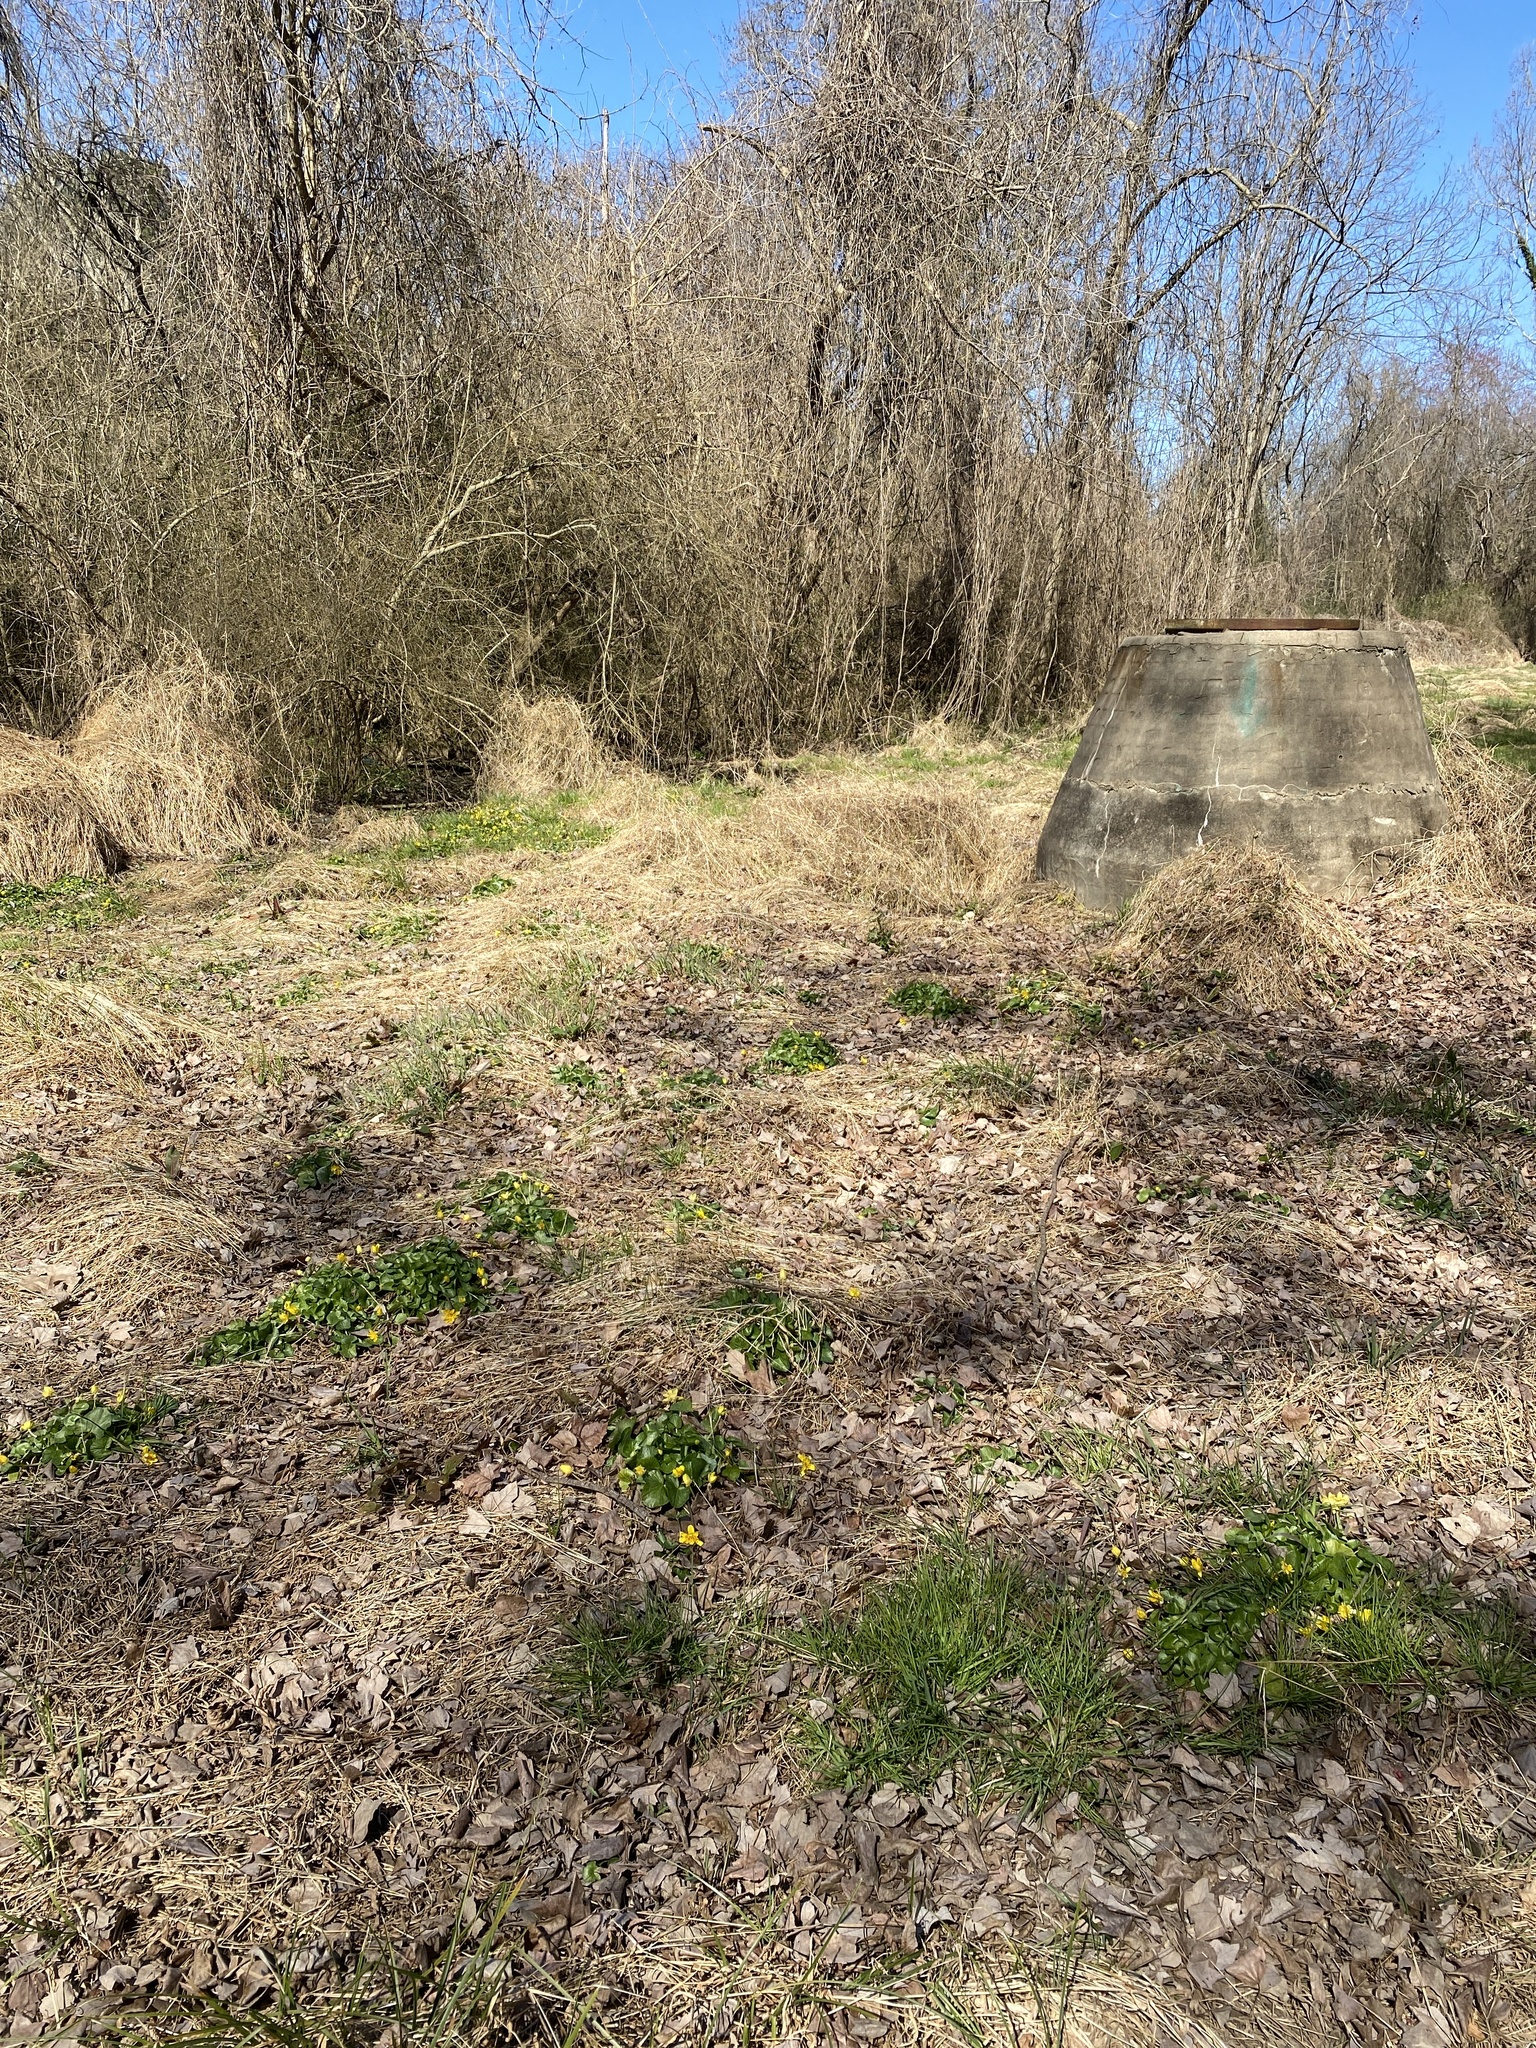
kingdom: Plantae
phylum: Tracheophyta
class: Magnoliopsida
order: Ranunculales
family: Ranunculaceae
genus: Ficaria
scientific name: Ficaria verna
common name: Lesser celandine
